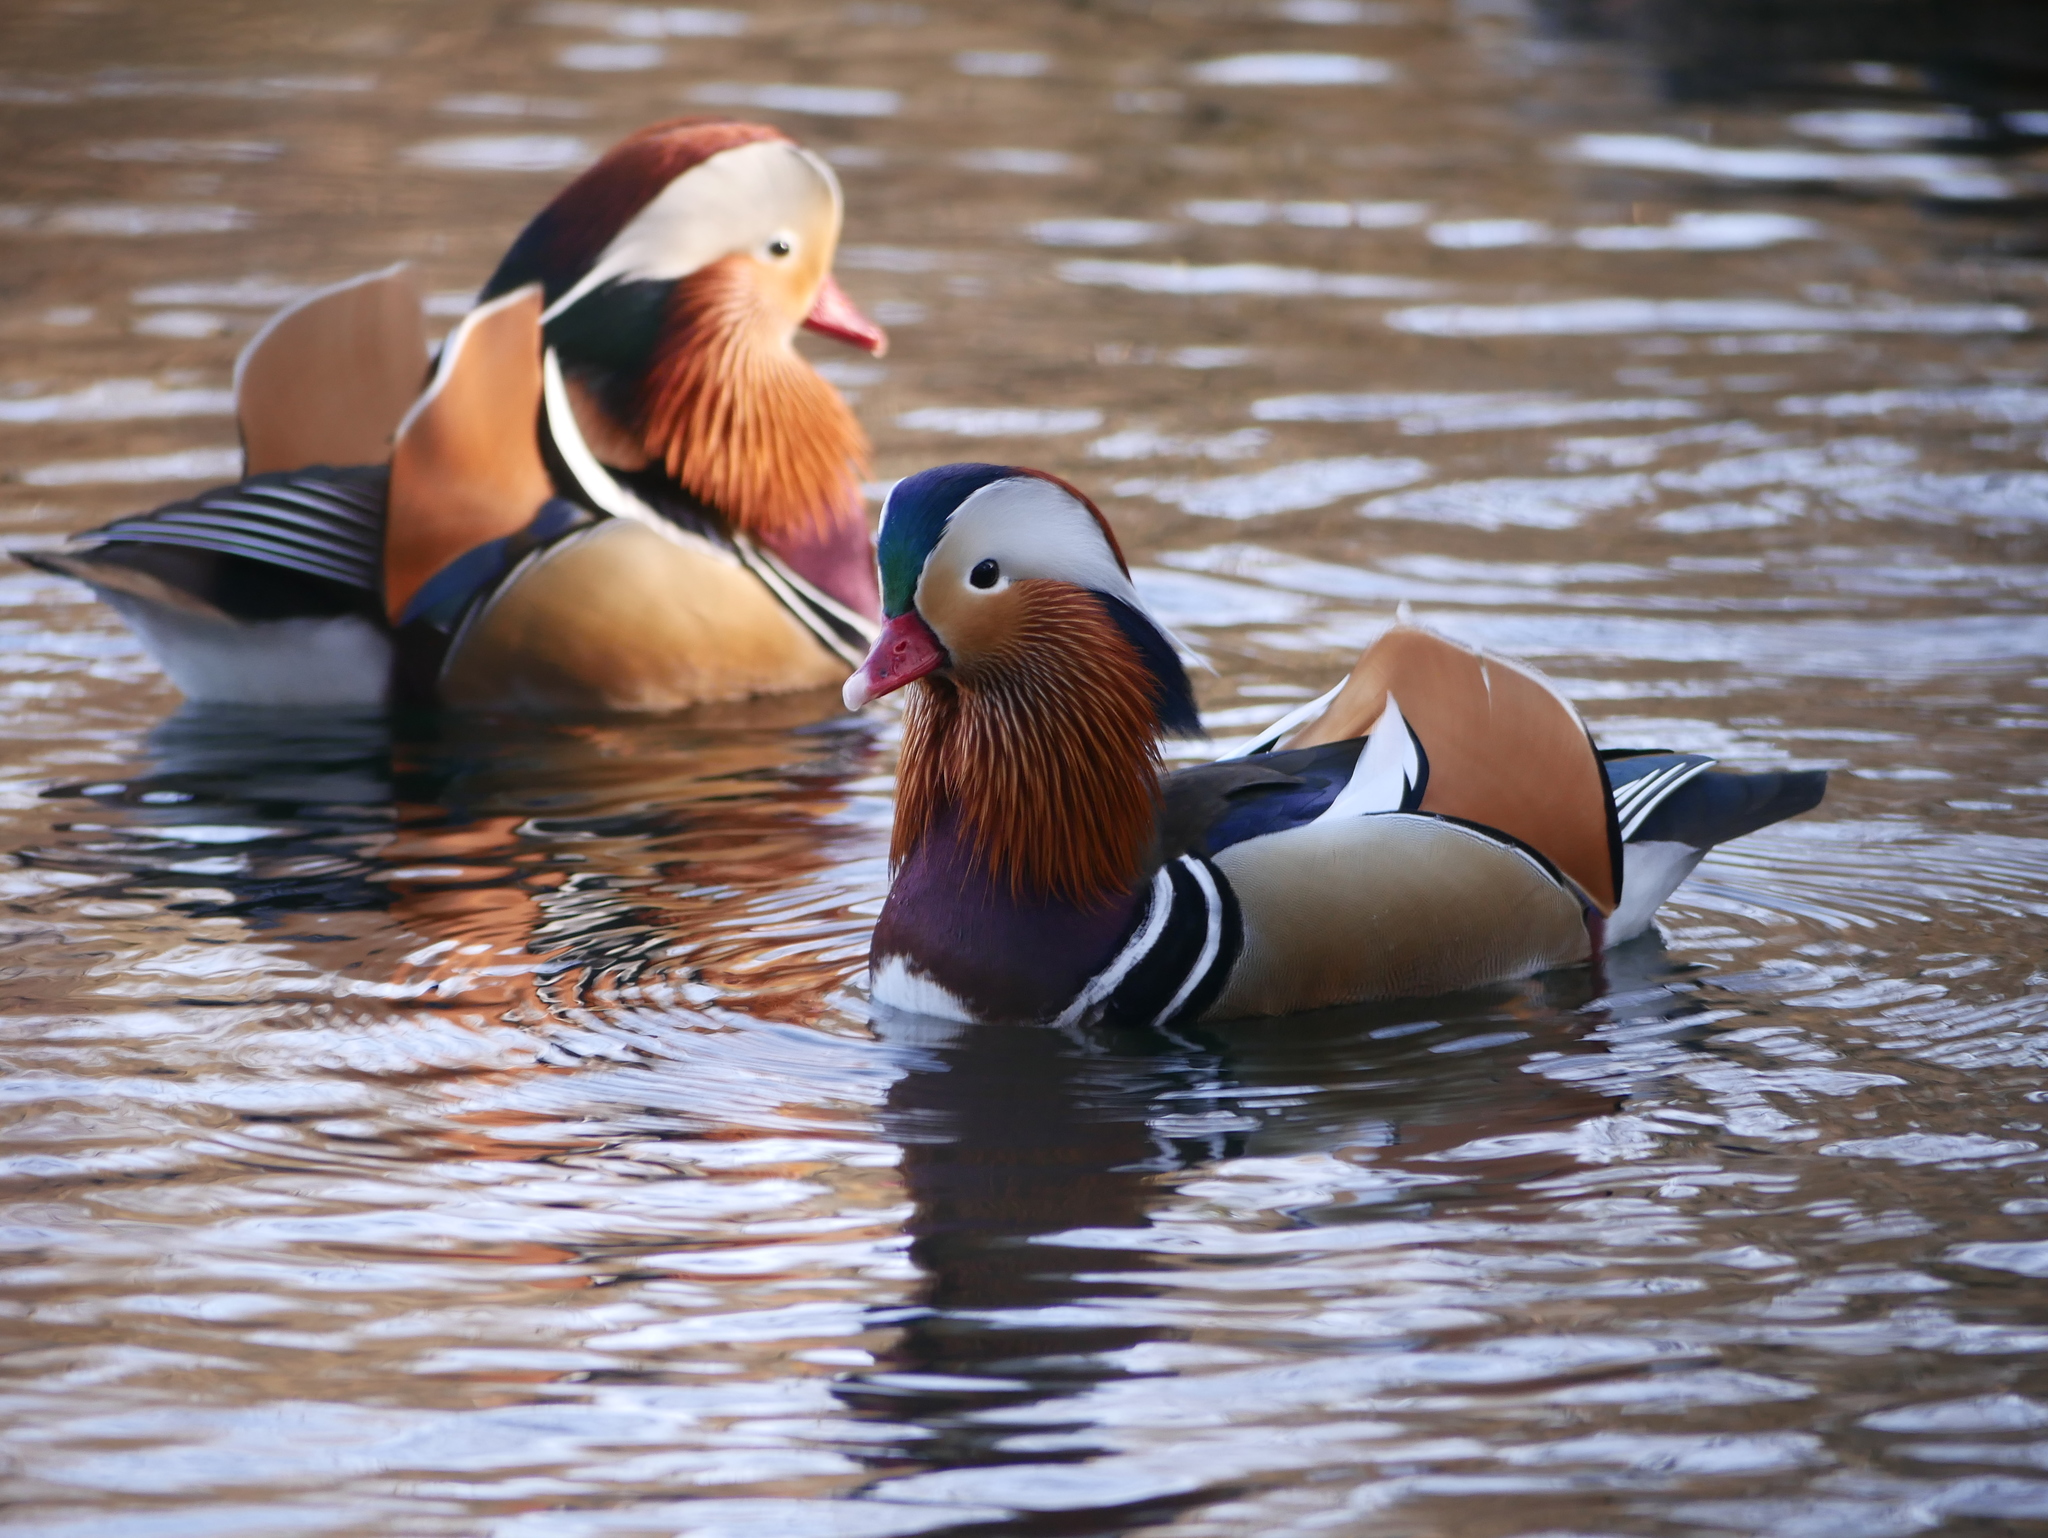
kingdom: Animalia
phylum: Chordata
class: Aves
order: Anseriformes
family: Anatidae
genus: Aix
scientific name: Aix galericulata
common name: Mandarin duck
